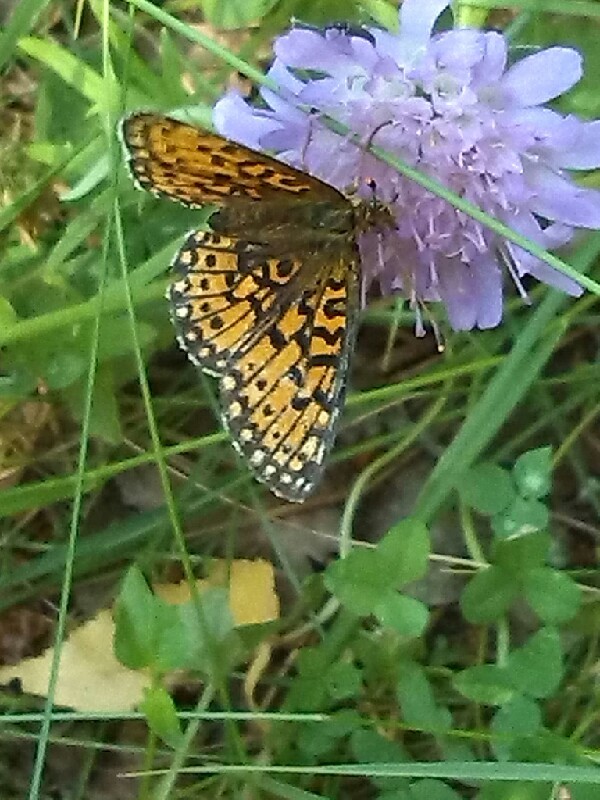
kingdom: Animalia
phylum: Arthropoda
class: Insecta
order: Lepidoptera
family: Nymphalidae
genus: Boloria
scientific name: Boloria selene
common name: Small pearl-bordered fritillary
